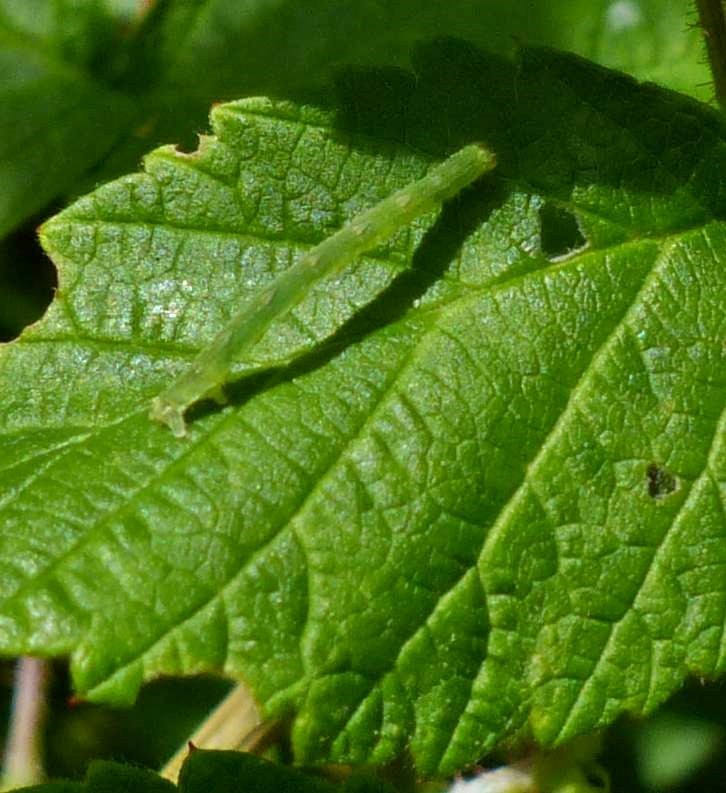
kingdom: Animalia
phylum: Arthropoda
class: Insecta
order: Lepidoptera
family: Geometridae
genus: Mesoleuca
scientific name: Mesoleuca ruficillata
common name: White-ribboned carpet moth
